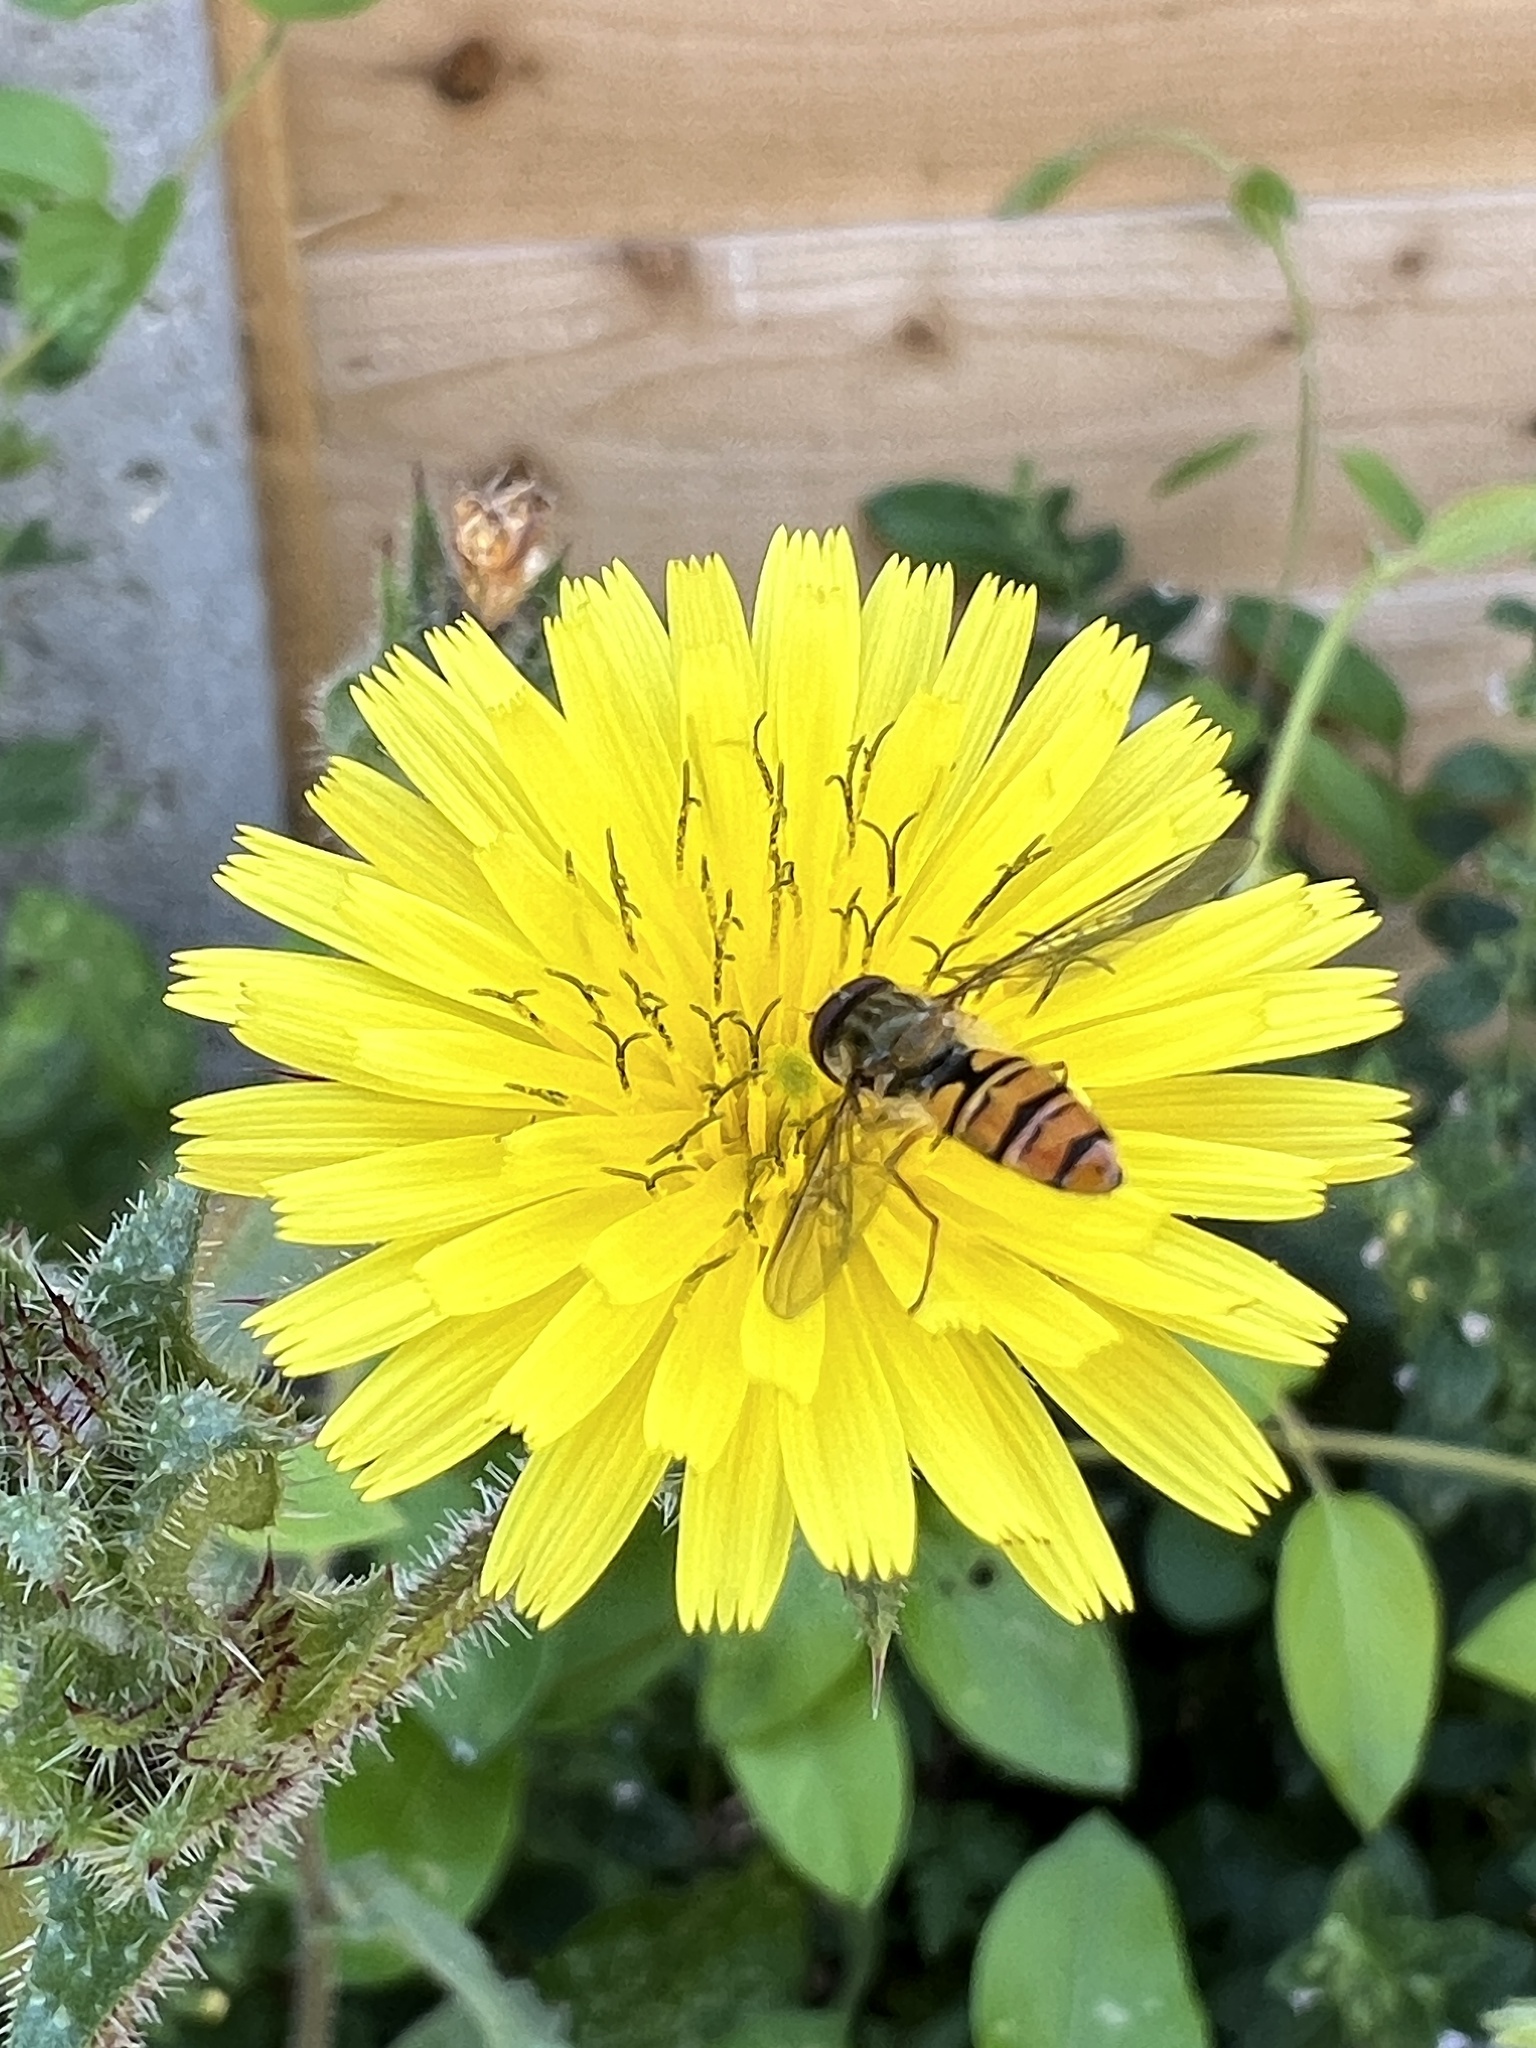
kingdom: Animalia
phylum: Arthropoda
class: Insecta
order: Diptera
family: Syrphidae
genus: Episyrphus
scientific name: Episyrphus balteatus
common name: Marmalade hoverfly
